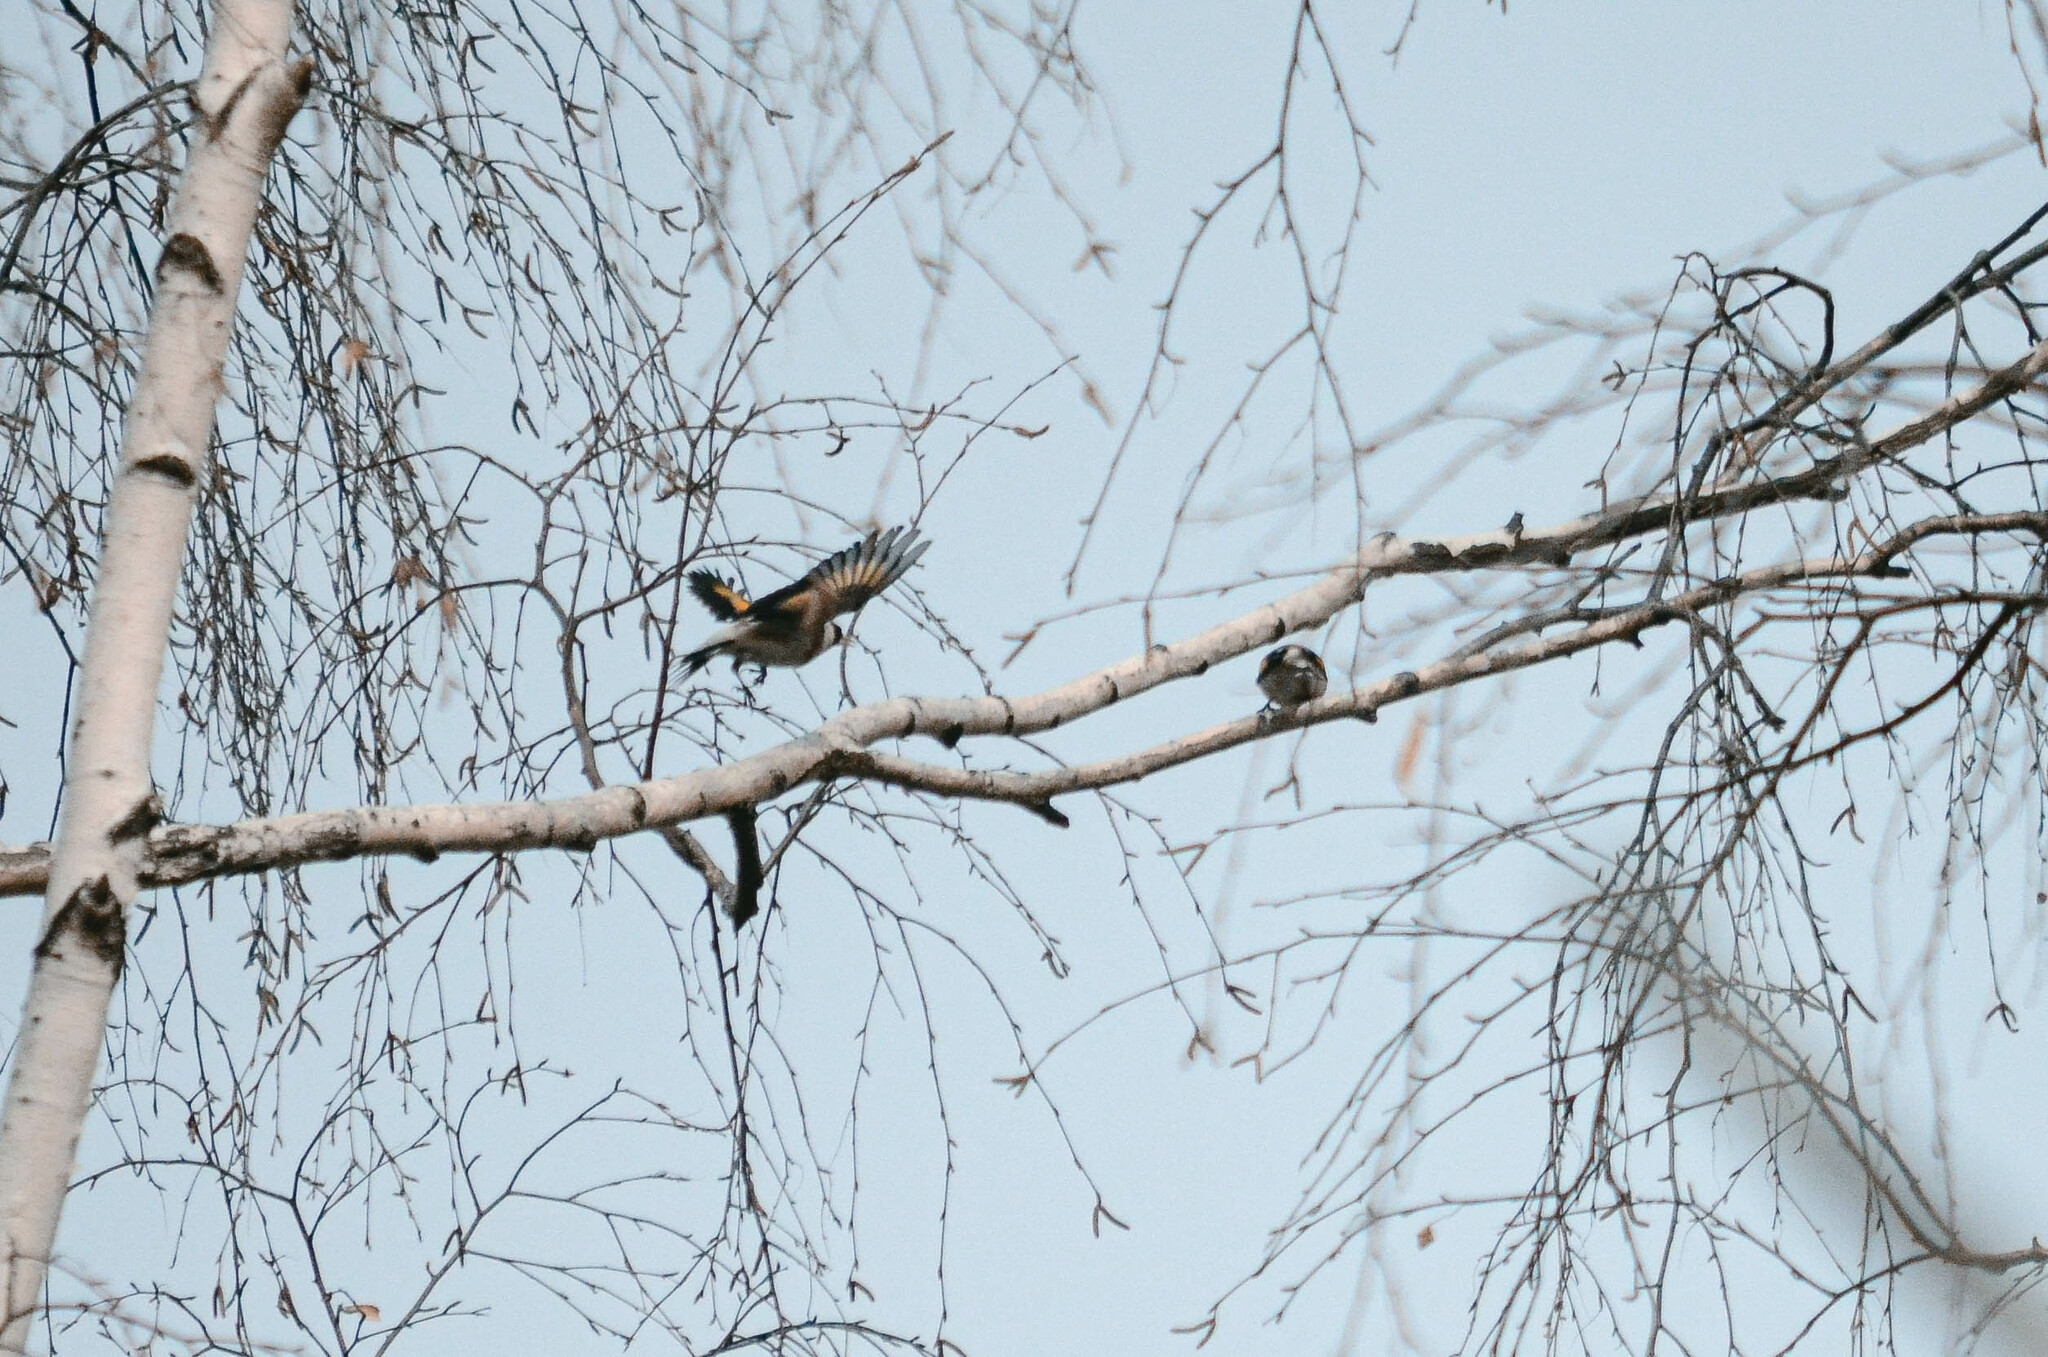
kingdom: Animalia
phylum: Chordata
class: Aves
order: Passeriformes
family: Fringillidae
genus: Carduelis
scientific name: Carduelis carduelis
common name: European goldfinch
